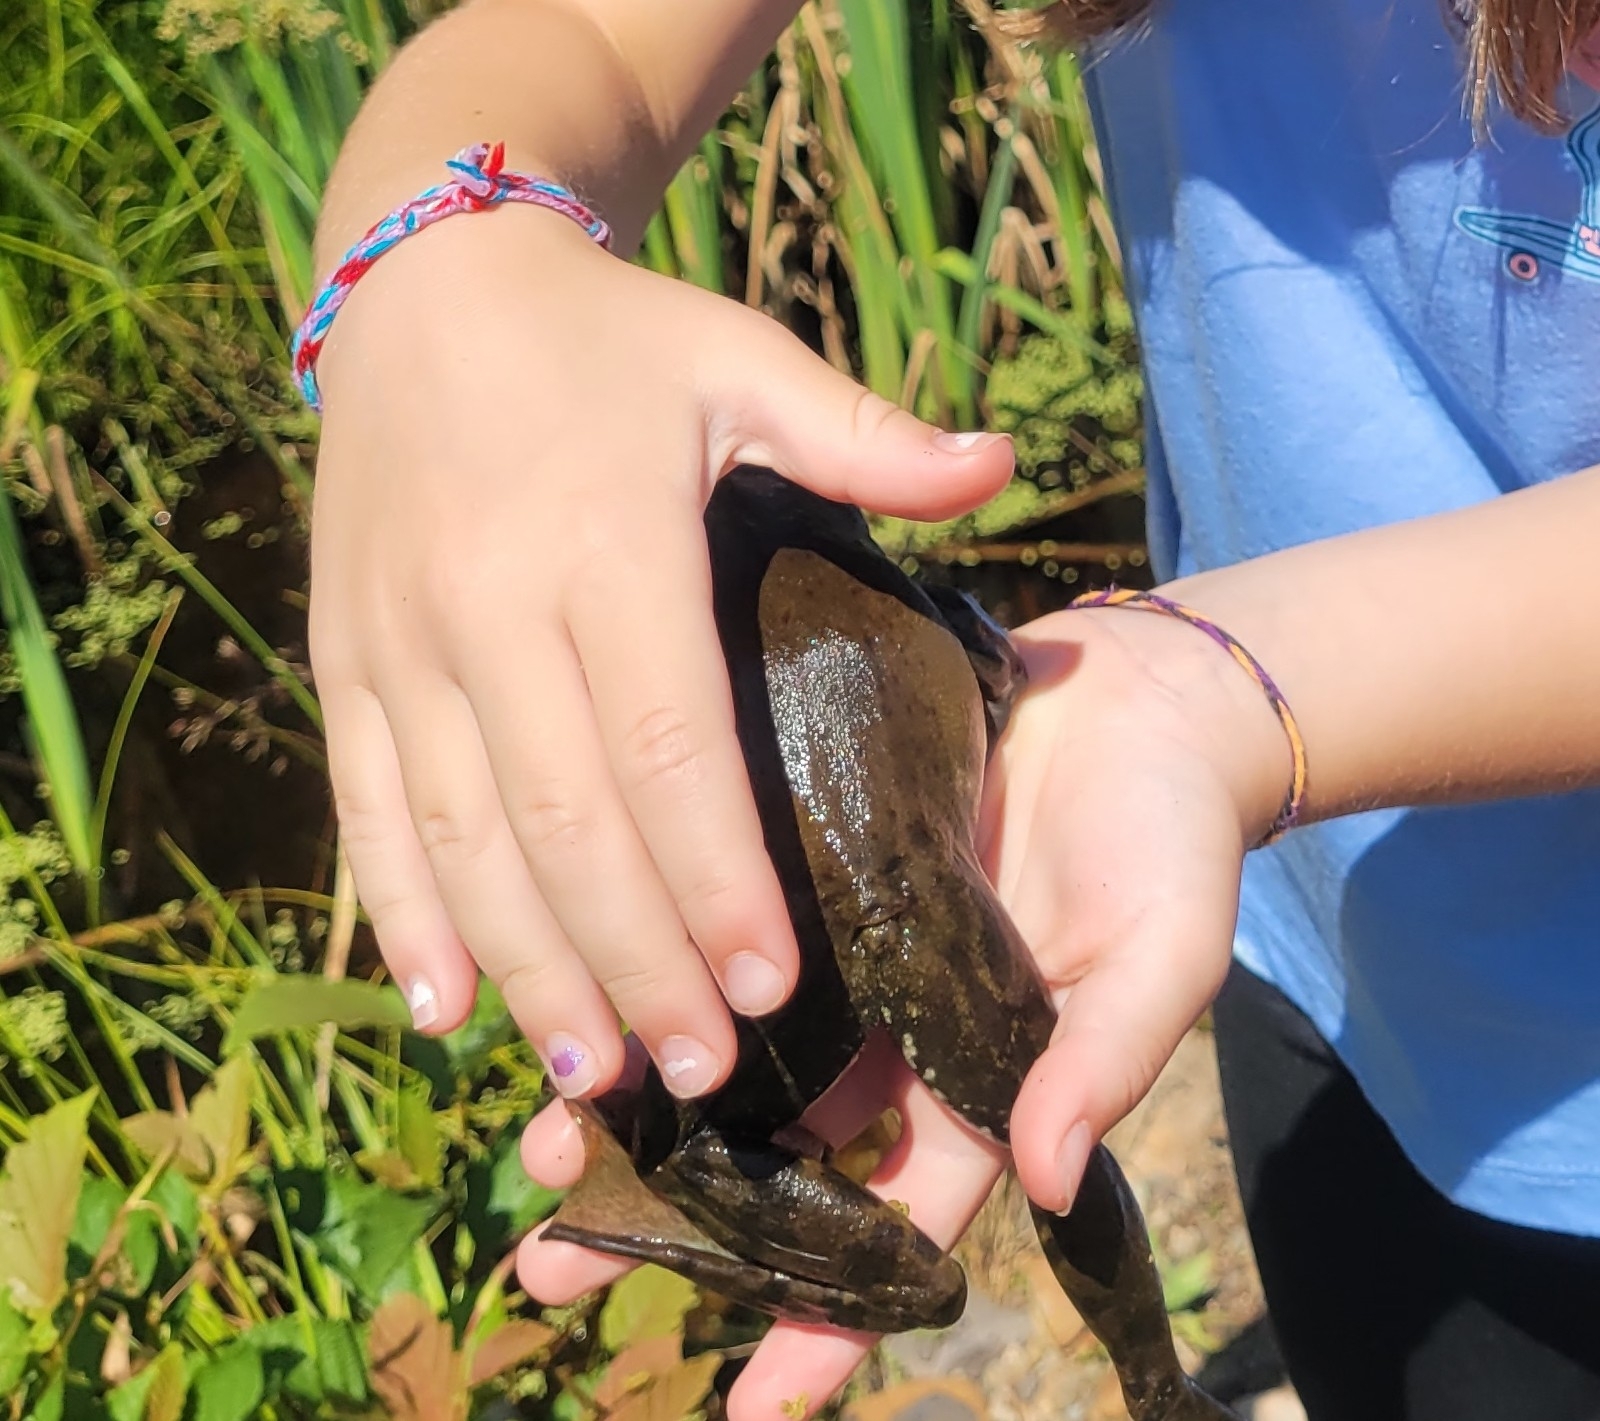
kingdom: Animalia
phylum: Chordata
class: Amphibia
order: Anura
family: Ranidae
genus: Lithobates
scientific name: Lithobates catesbeianus
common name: American bullfrog
